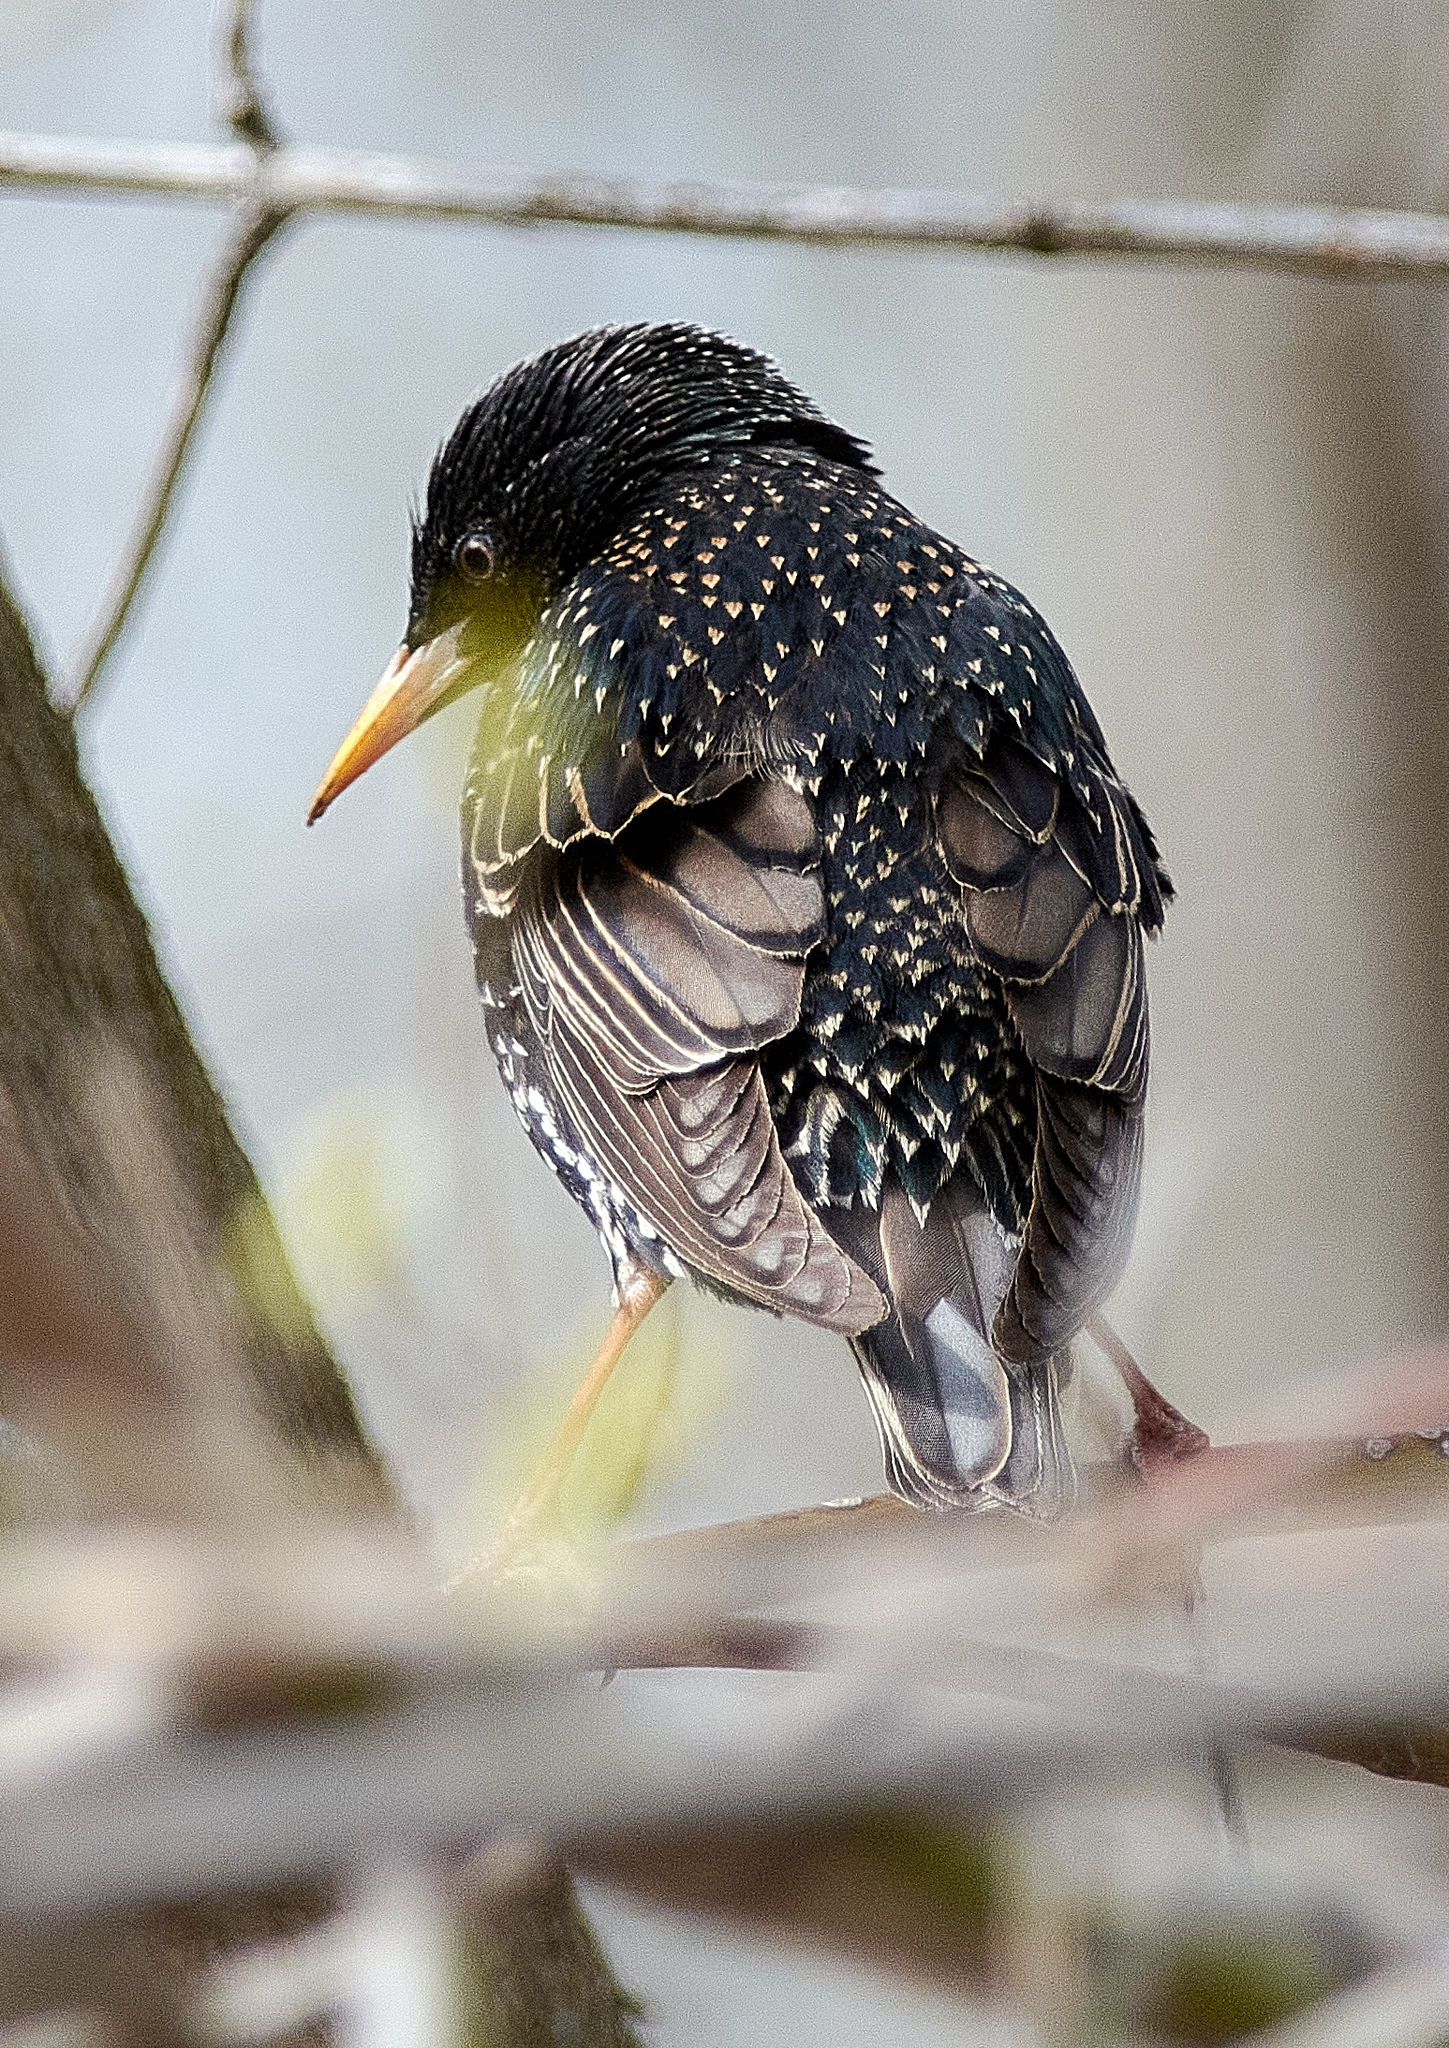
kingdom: Animalia
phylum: Chordata
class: Aves
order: Passeriformes
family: Sturnidae
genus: Sturnus
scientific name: Sturnus vulgaris
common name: Common starling
